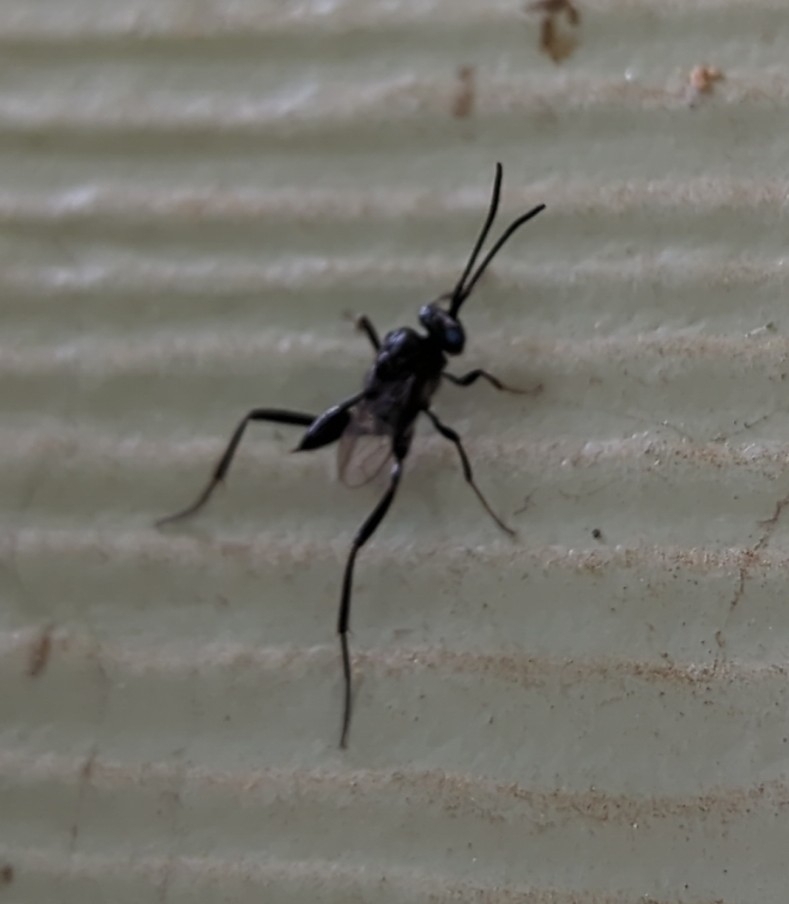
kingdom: Animalia
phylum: Arthropoda
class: Insecta
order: Hymenoptera
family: Evaniidae
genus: Evania
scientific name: Evania appendigaster
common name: Ensign wasp
